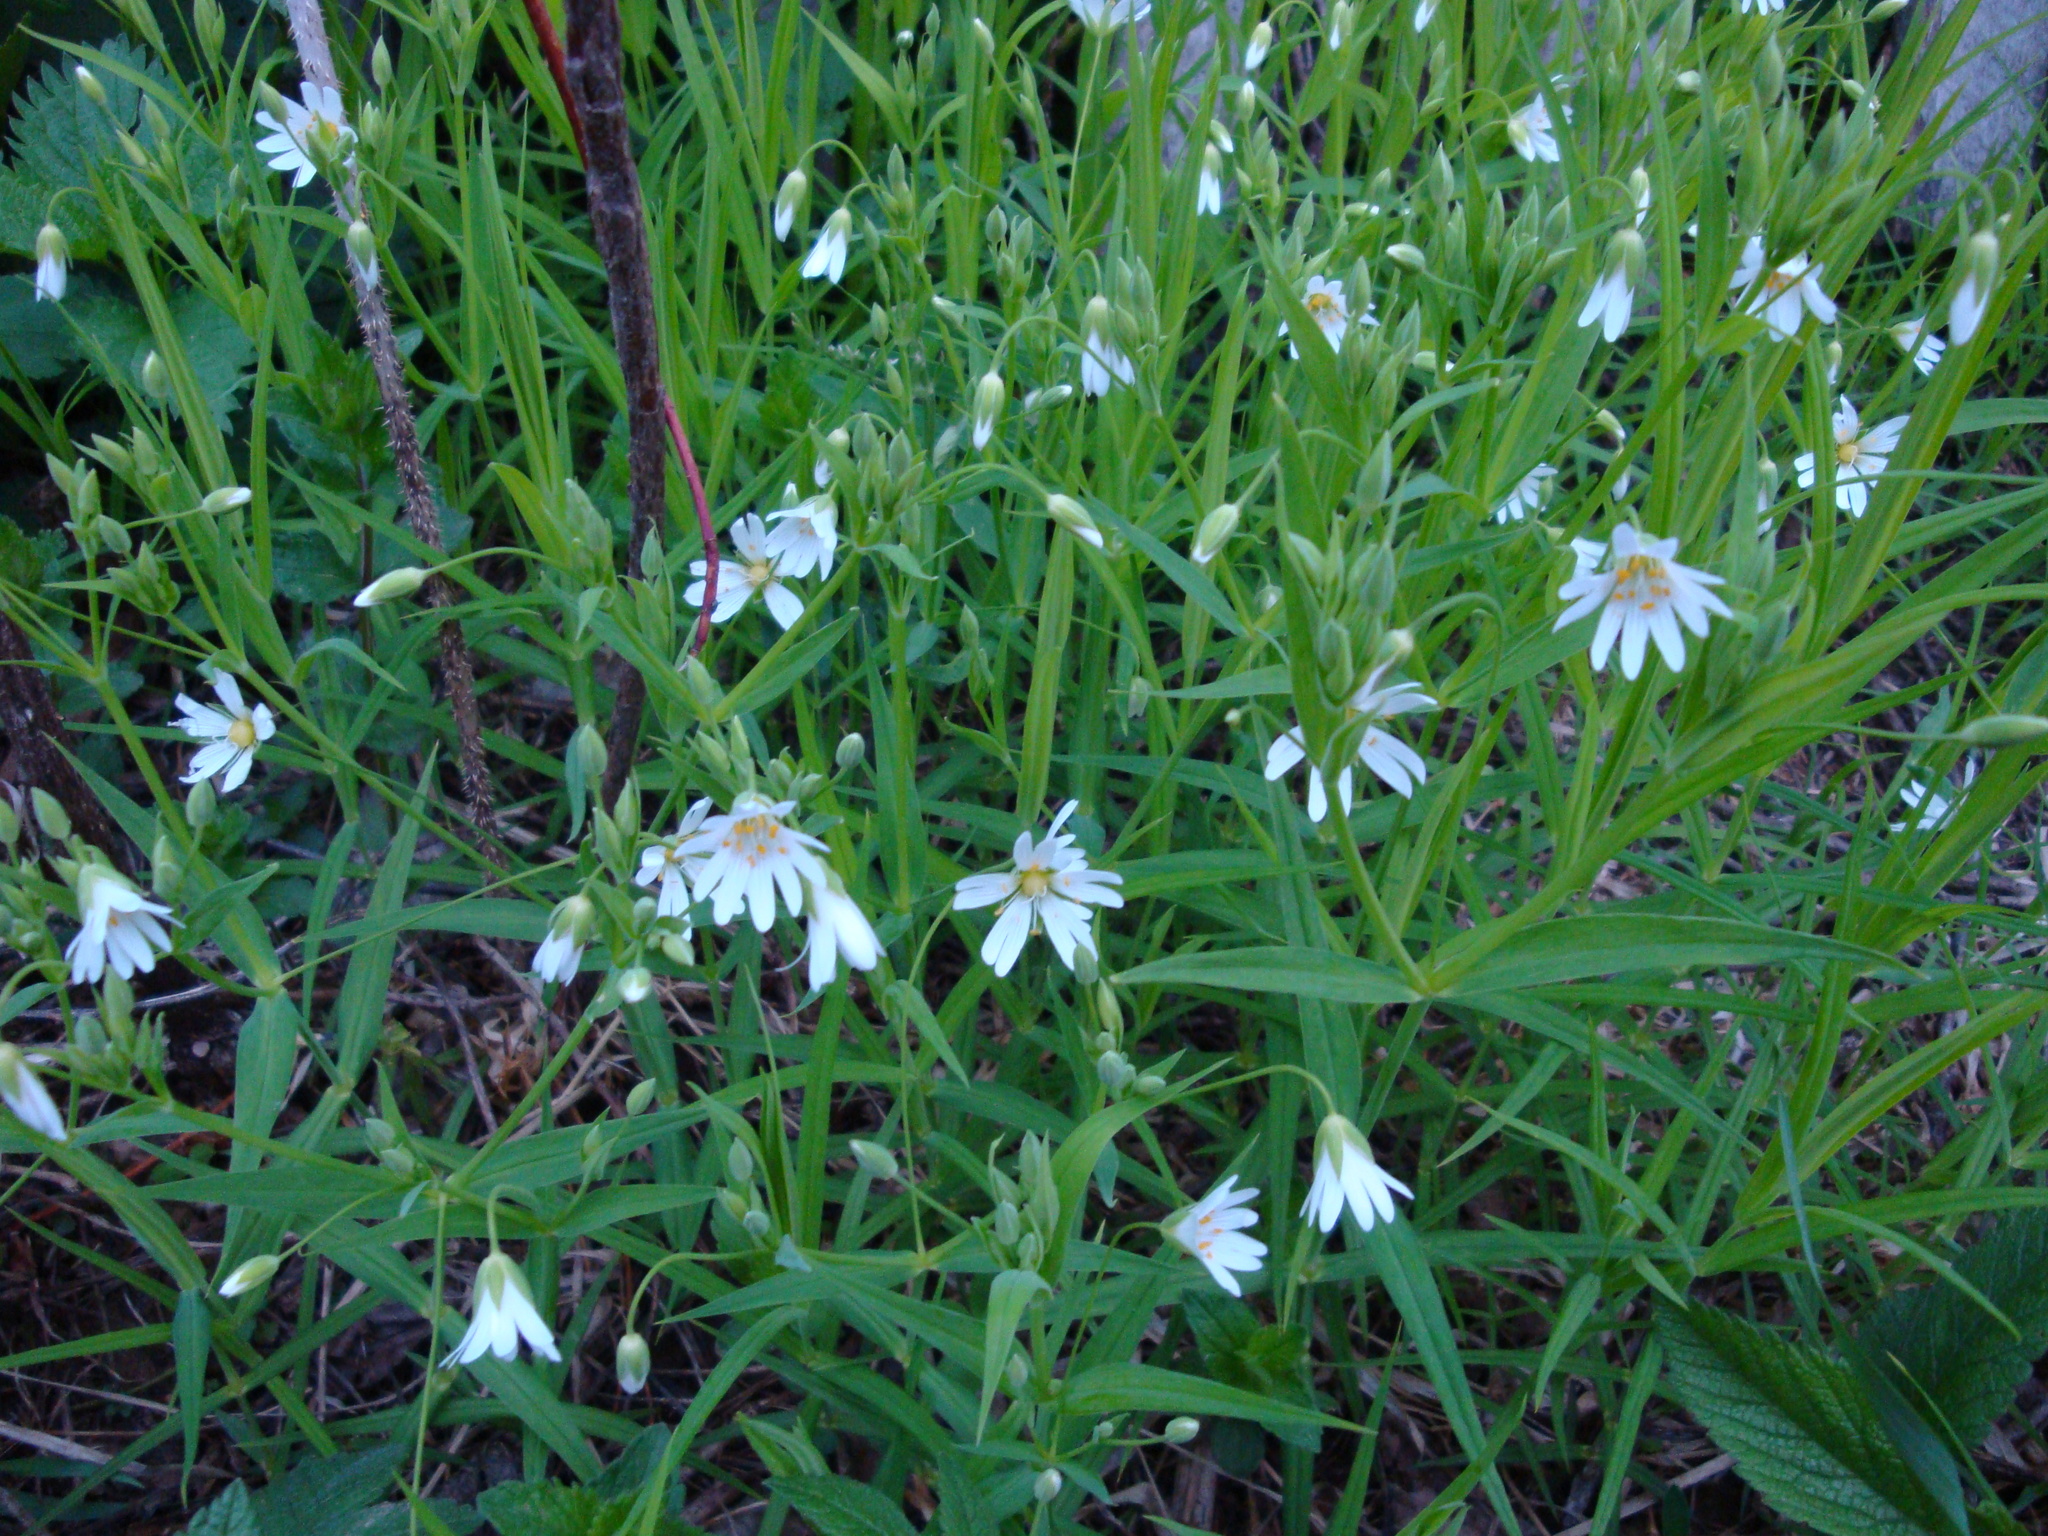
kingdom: Plantae
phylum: Tracheophyta
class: Magnoliopsida
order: Caryophyllales
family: Caryophyllaceae
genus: Rabelera
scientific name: Rabelera holostea
